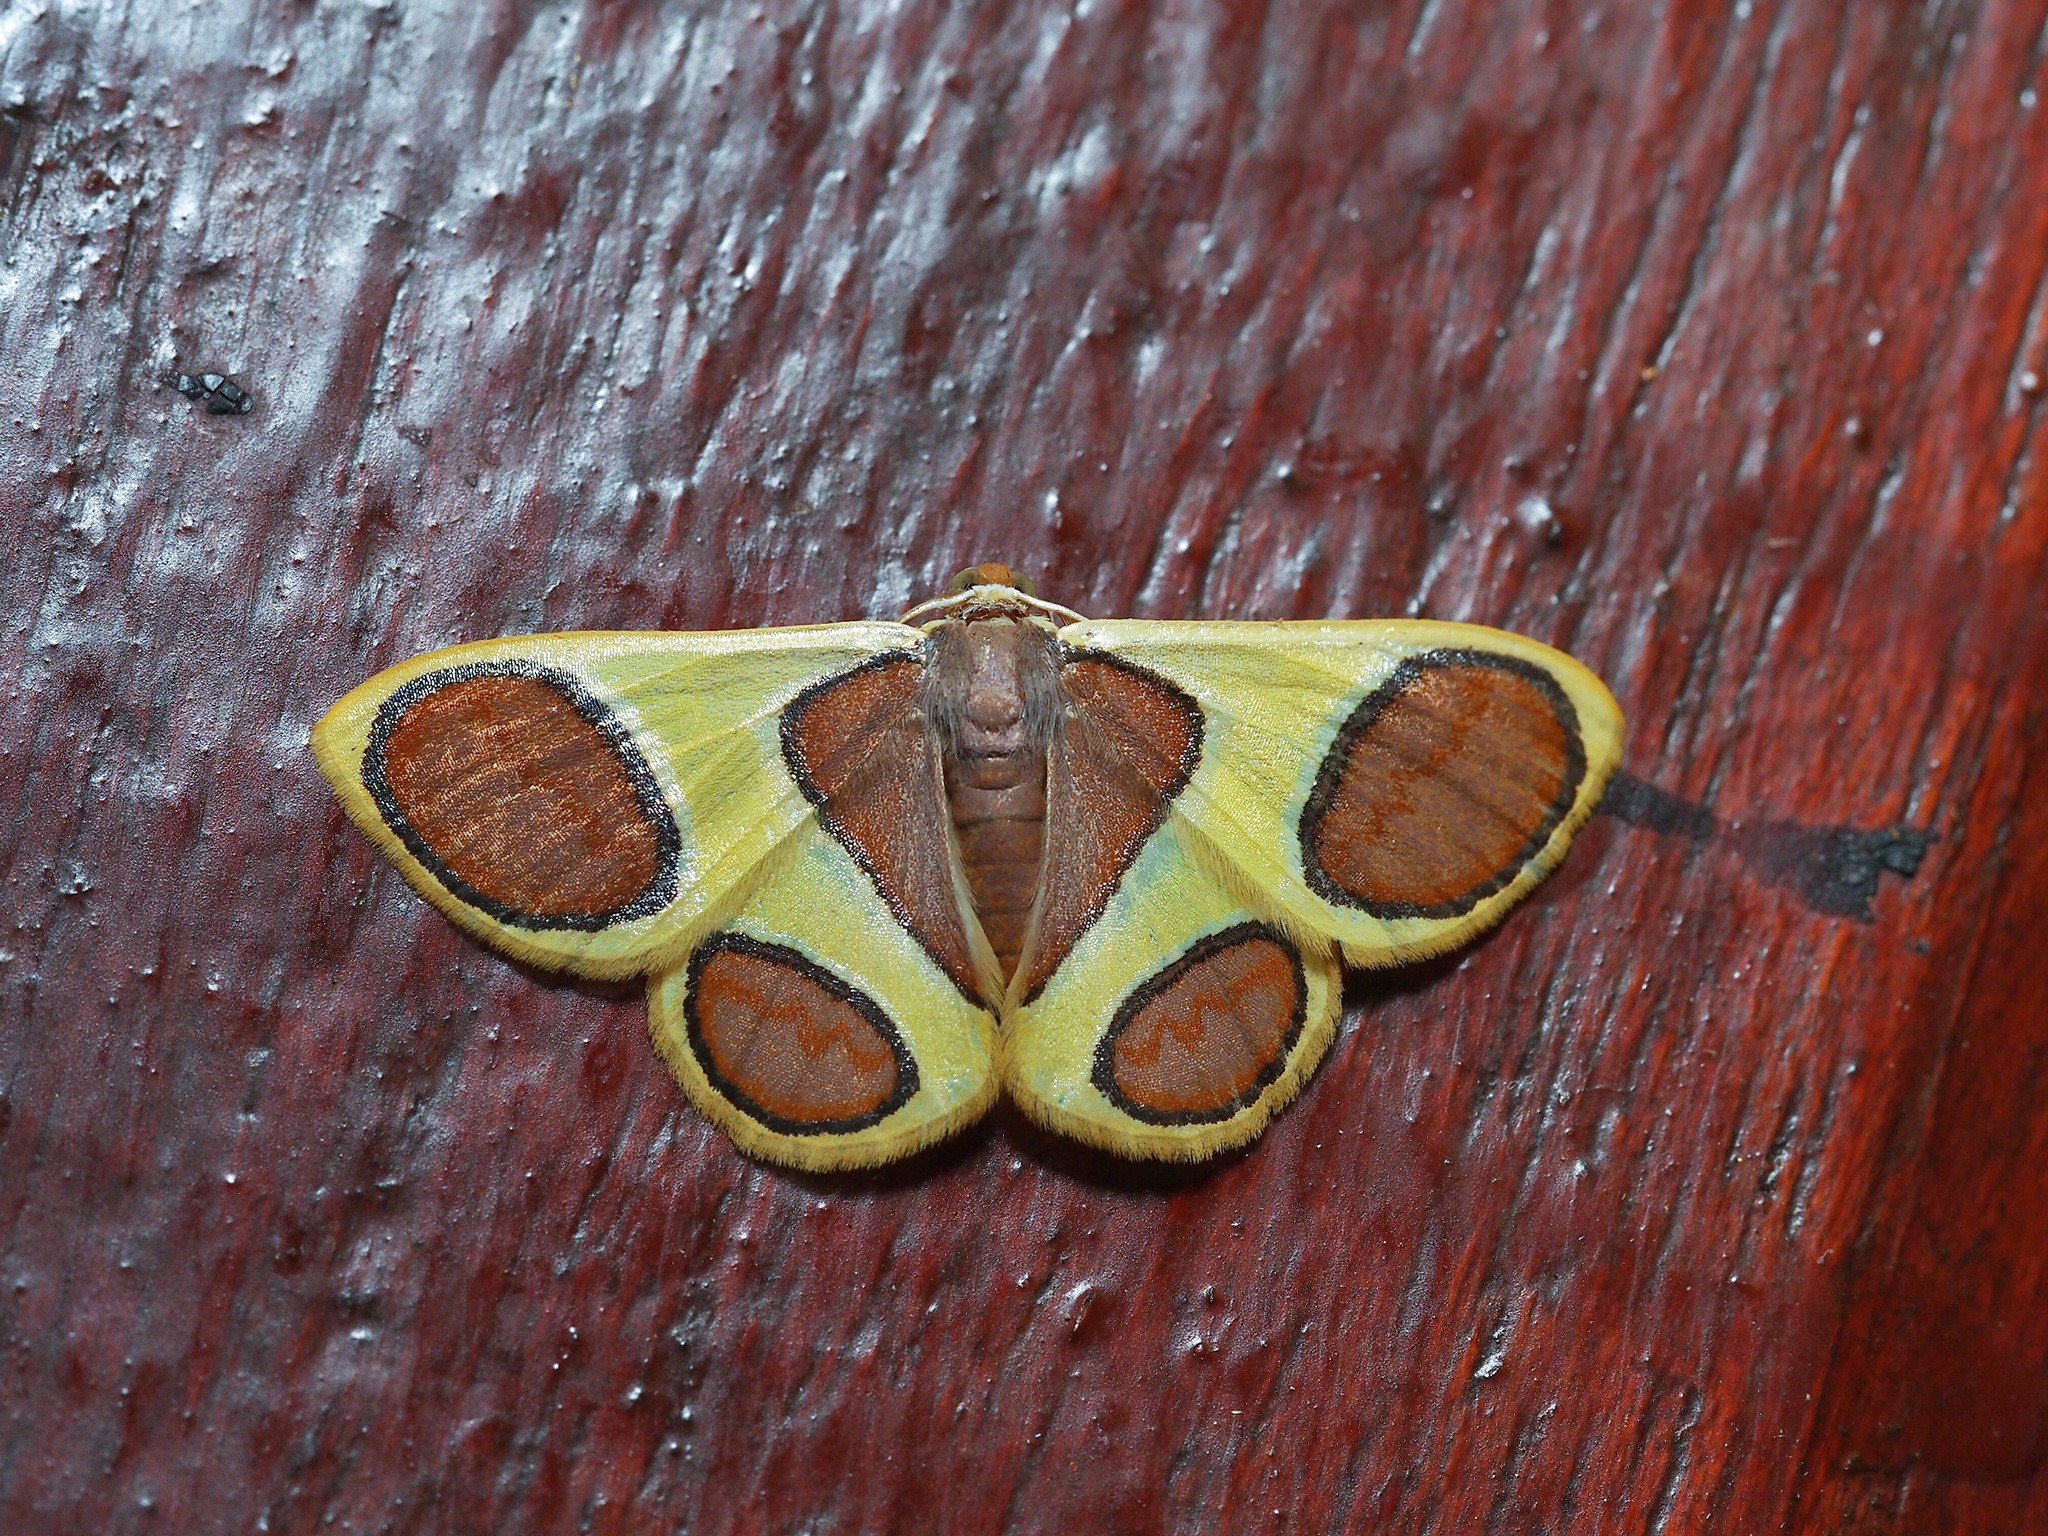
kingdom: Animalia
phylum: Arthropoda
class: Insecta
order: Lepidoptera
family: Geometridae
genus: Plutodes
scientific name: Plutodes malaysiana
